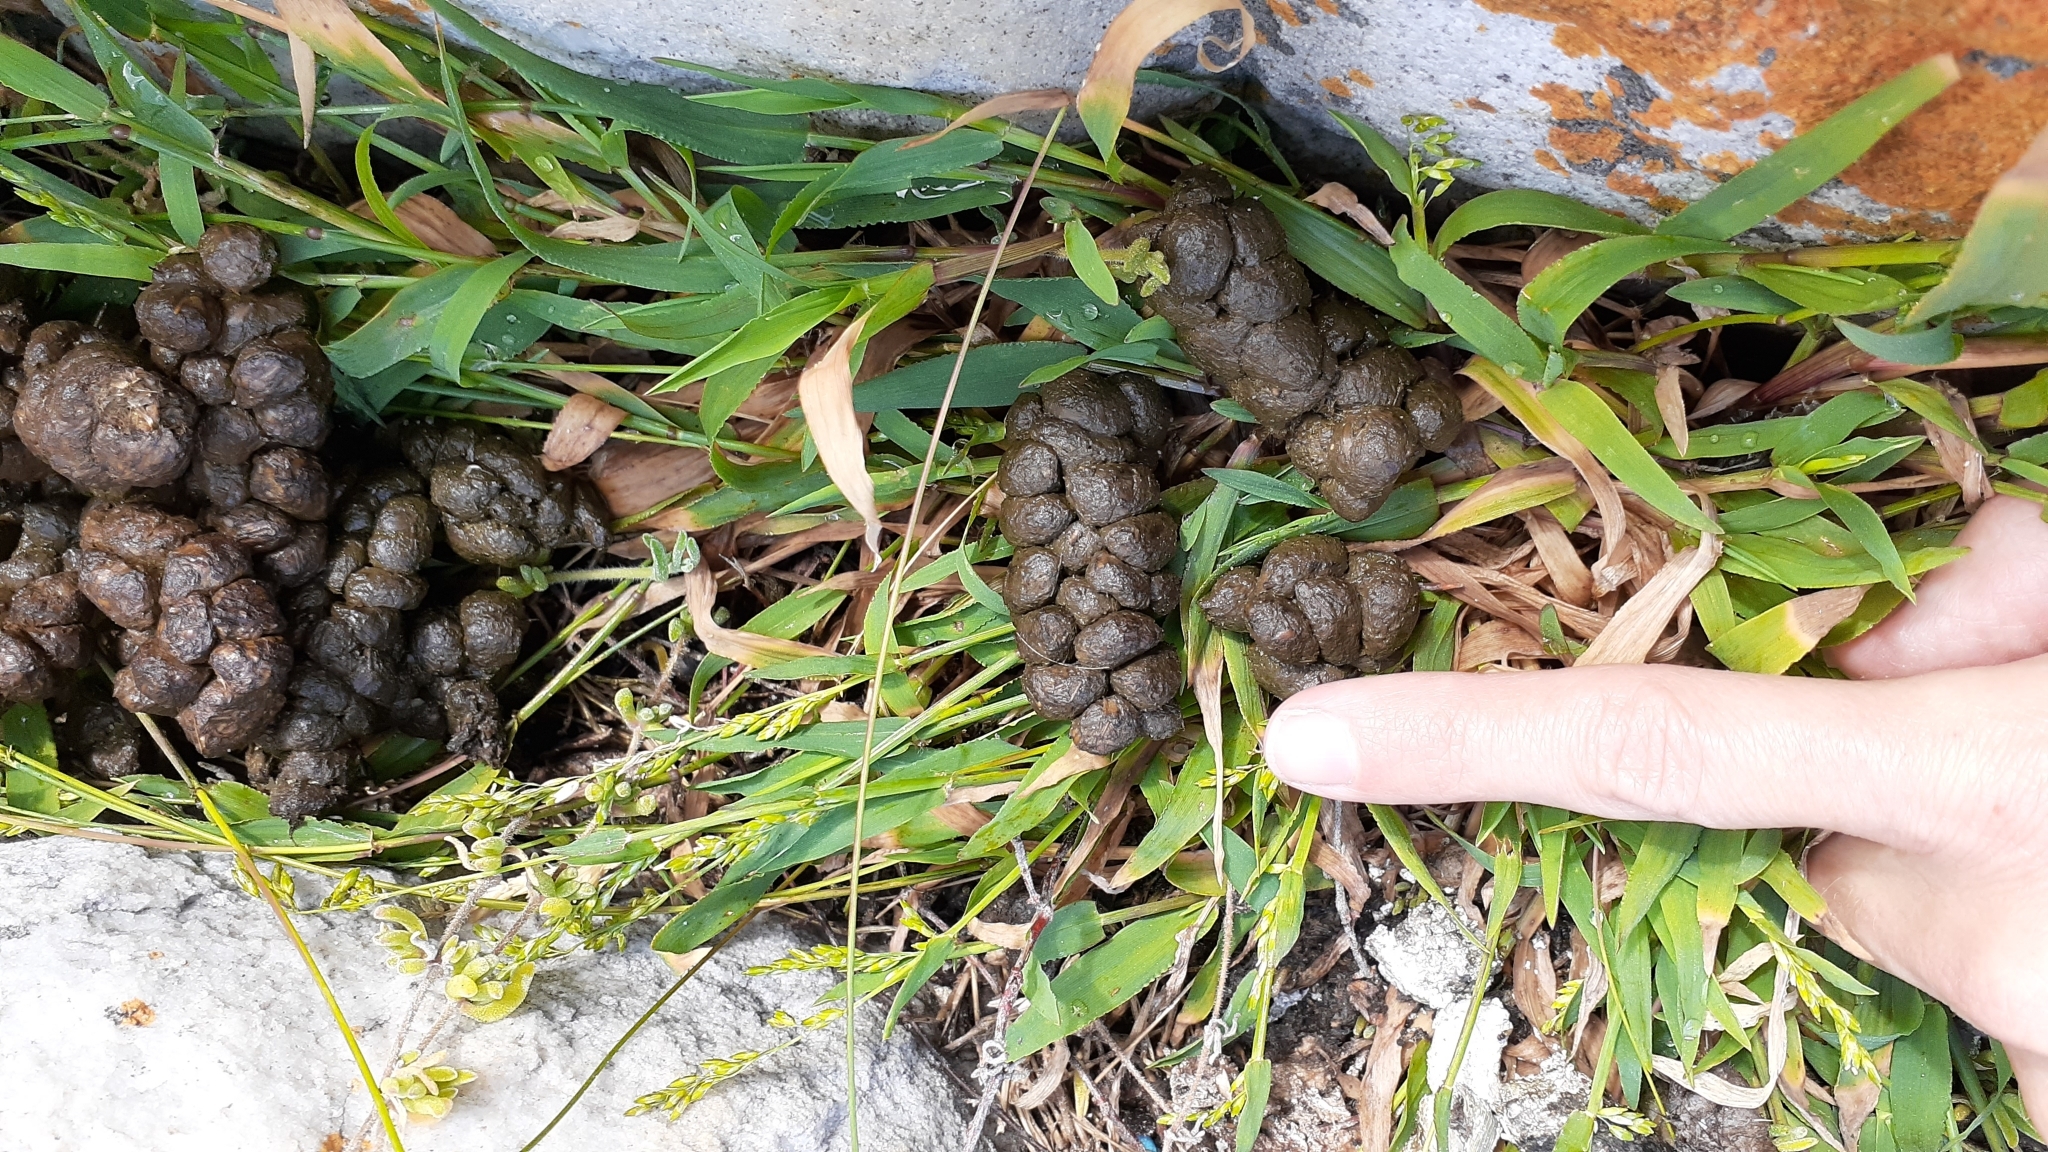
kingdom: Animalia
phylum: Chordata
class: Mammalia
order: Hyracoidea
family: Procaviidae
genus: Procavia
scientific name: Procavia capensis
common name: Rock hyrax
